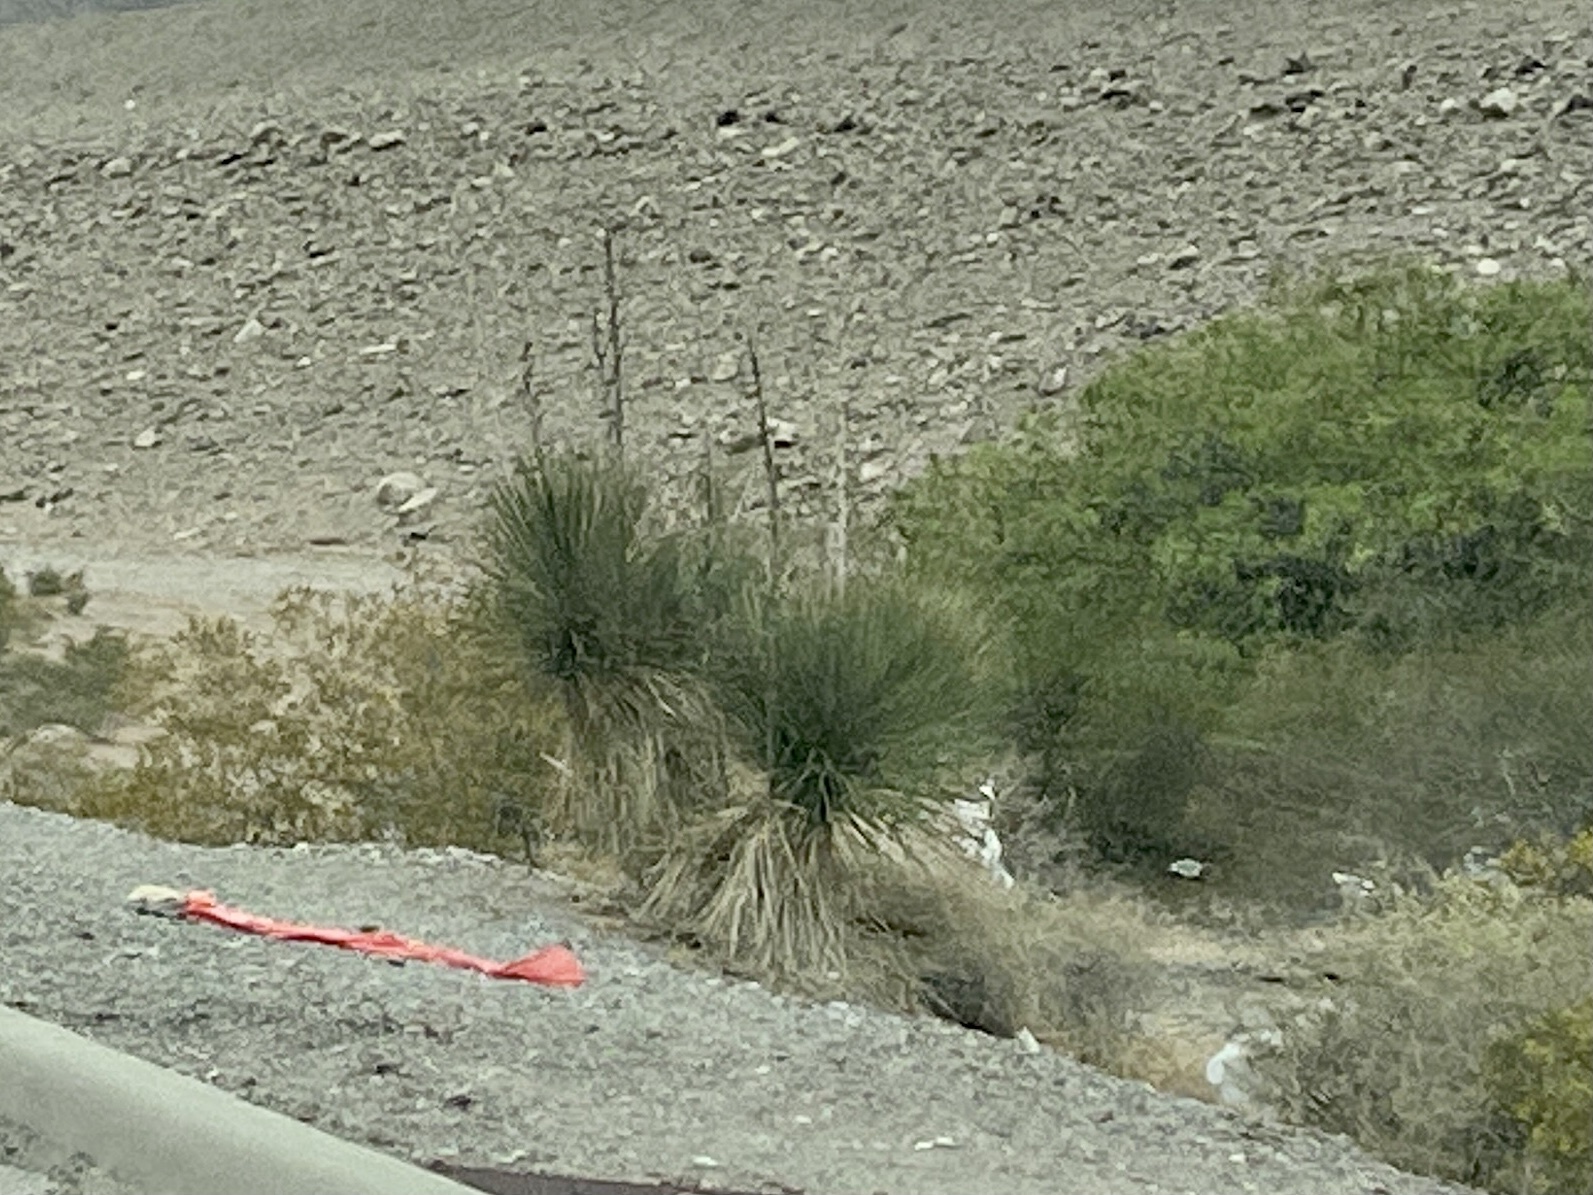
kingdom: Plantae
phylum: Tracheophyta
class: Liliopsida
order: Asparagales
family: Asparagaceae
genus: Yucca
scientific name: Yucca elata
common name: Palmella
